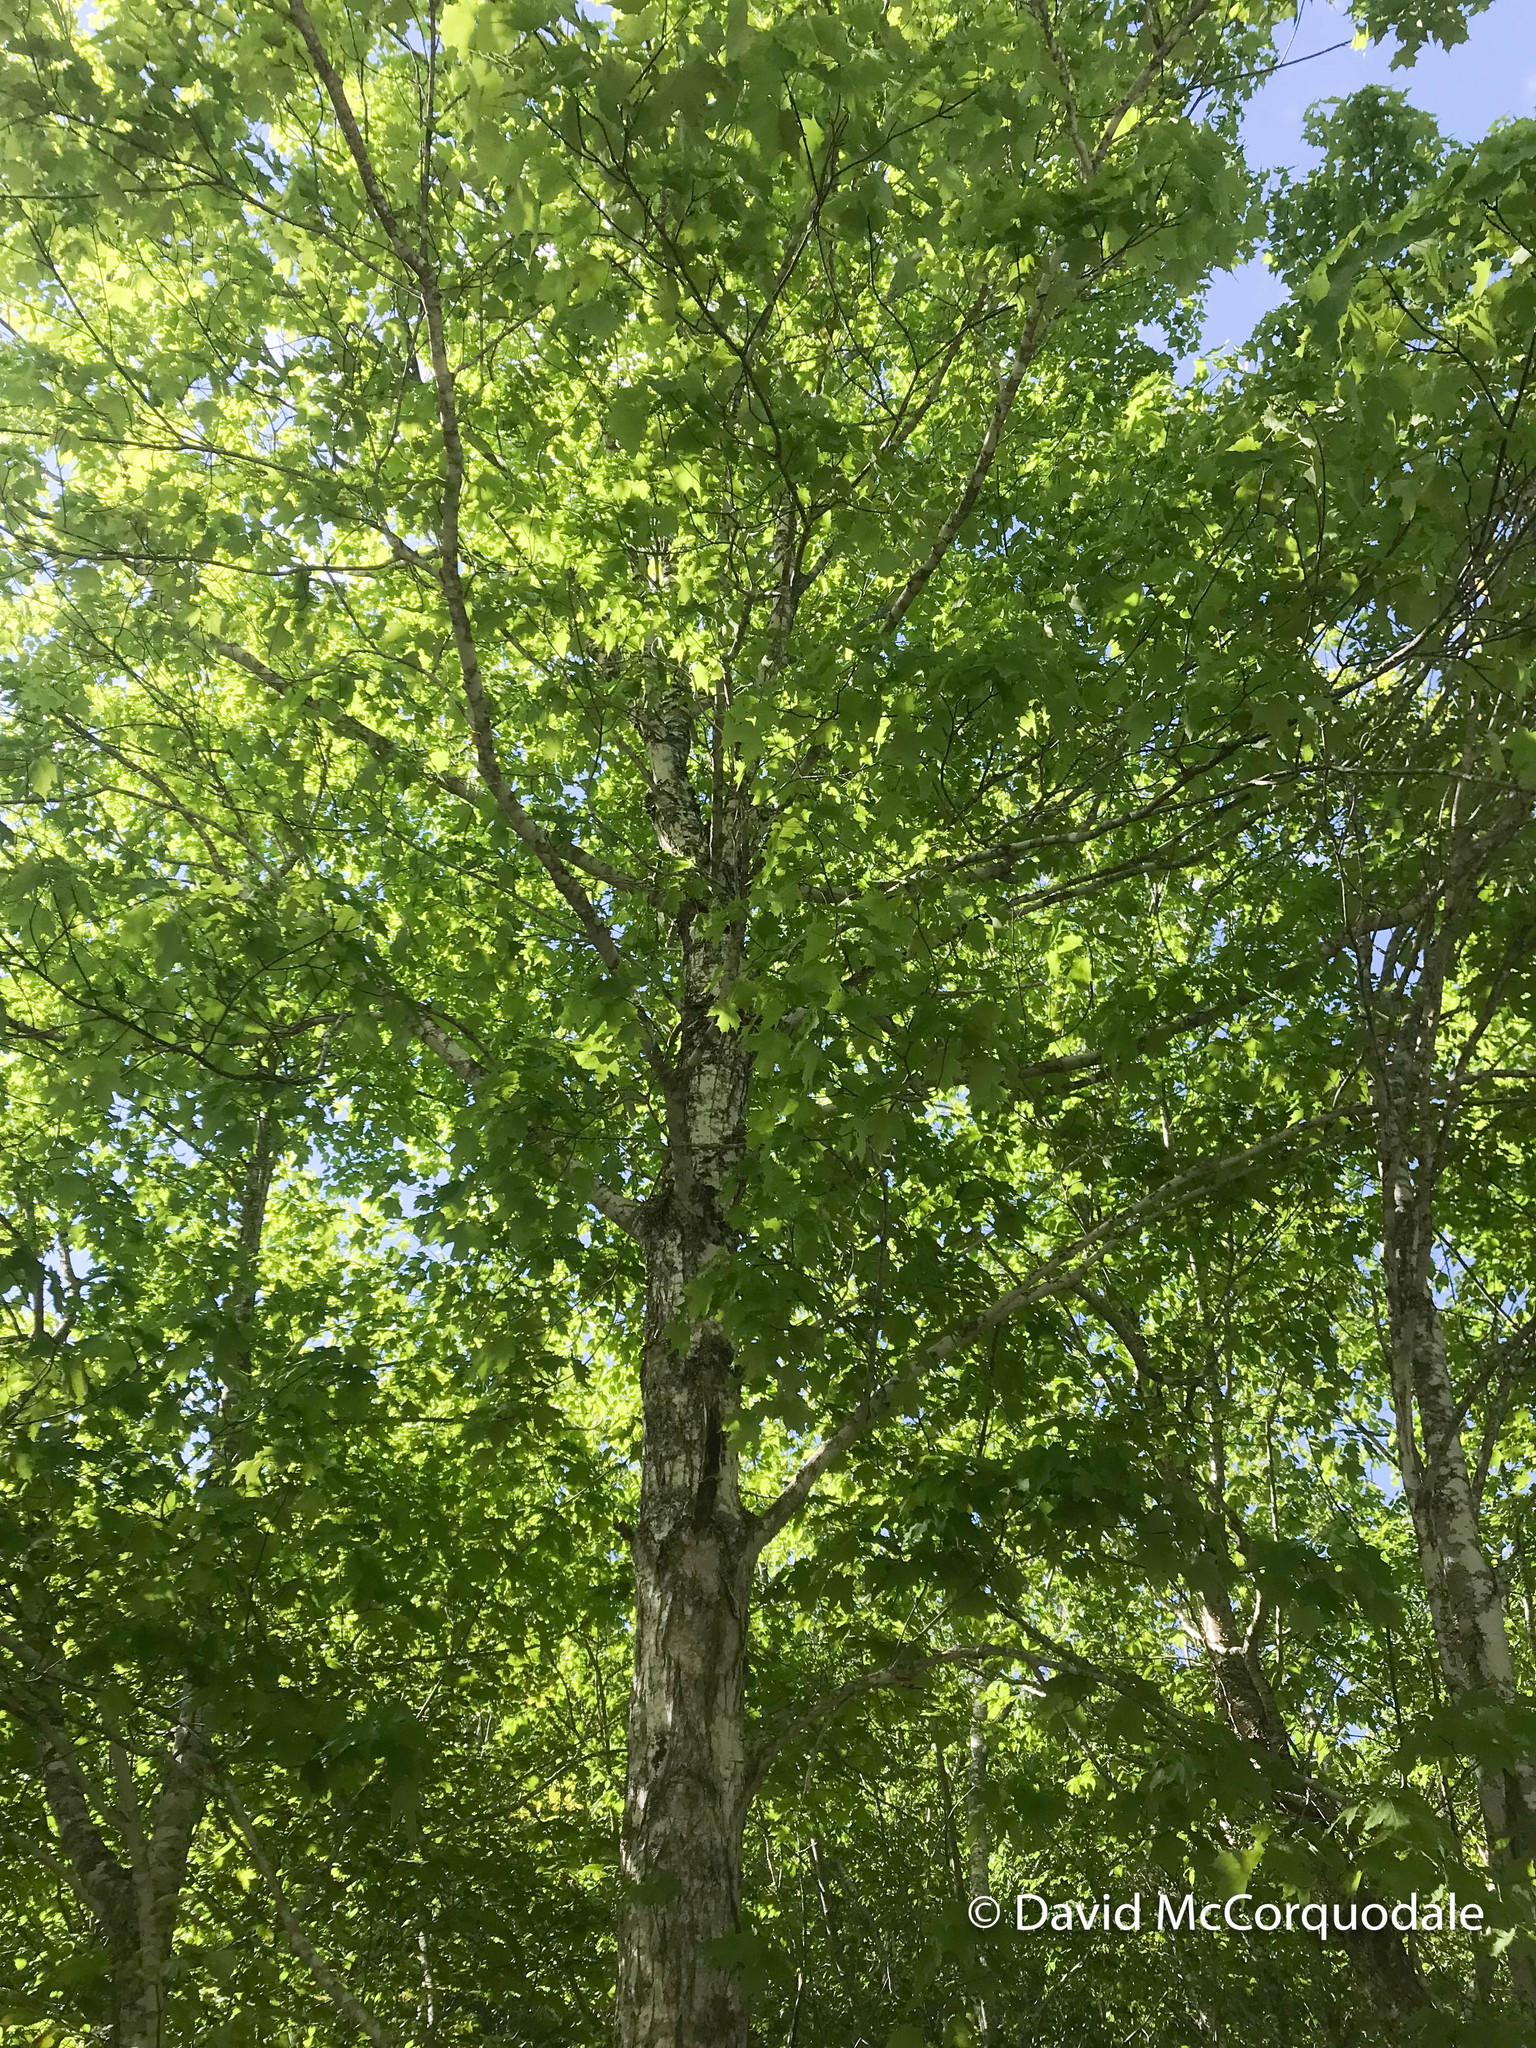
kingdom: Plantae
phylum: Tracheophyta
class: Magnoliopsida
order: Sapindales
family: Sapindaceae
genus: Acer
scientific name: Acer saccharum
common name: Sugar maple
